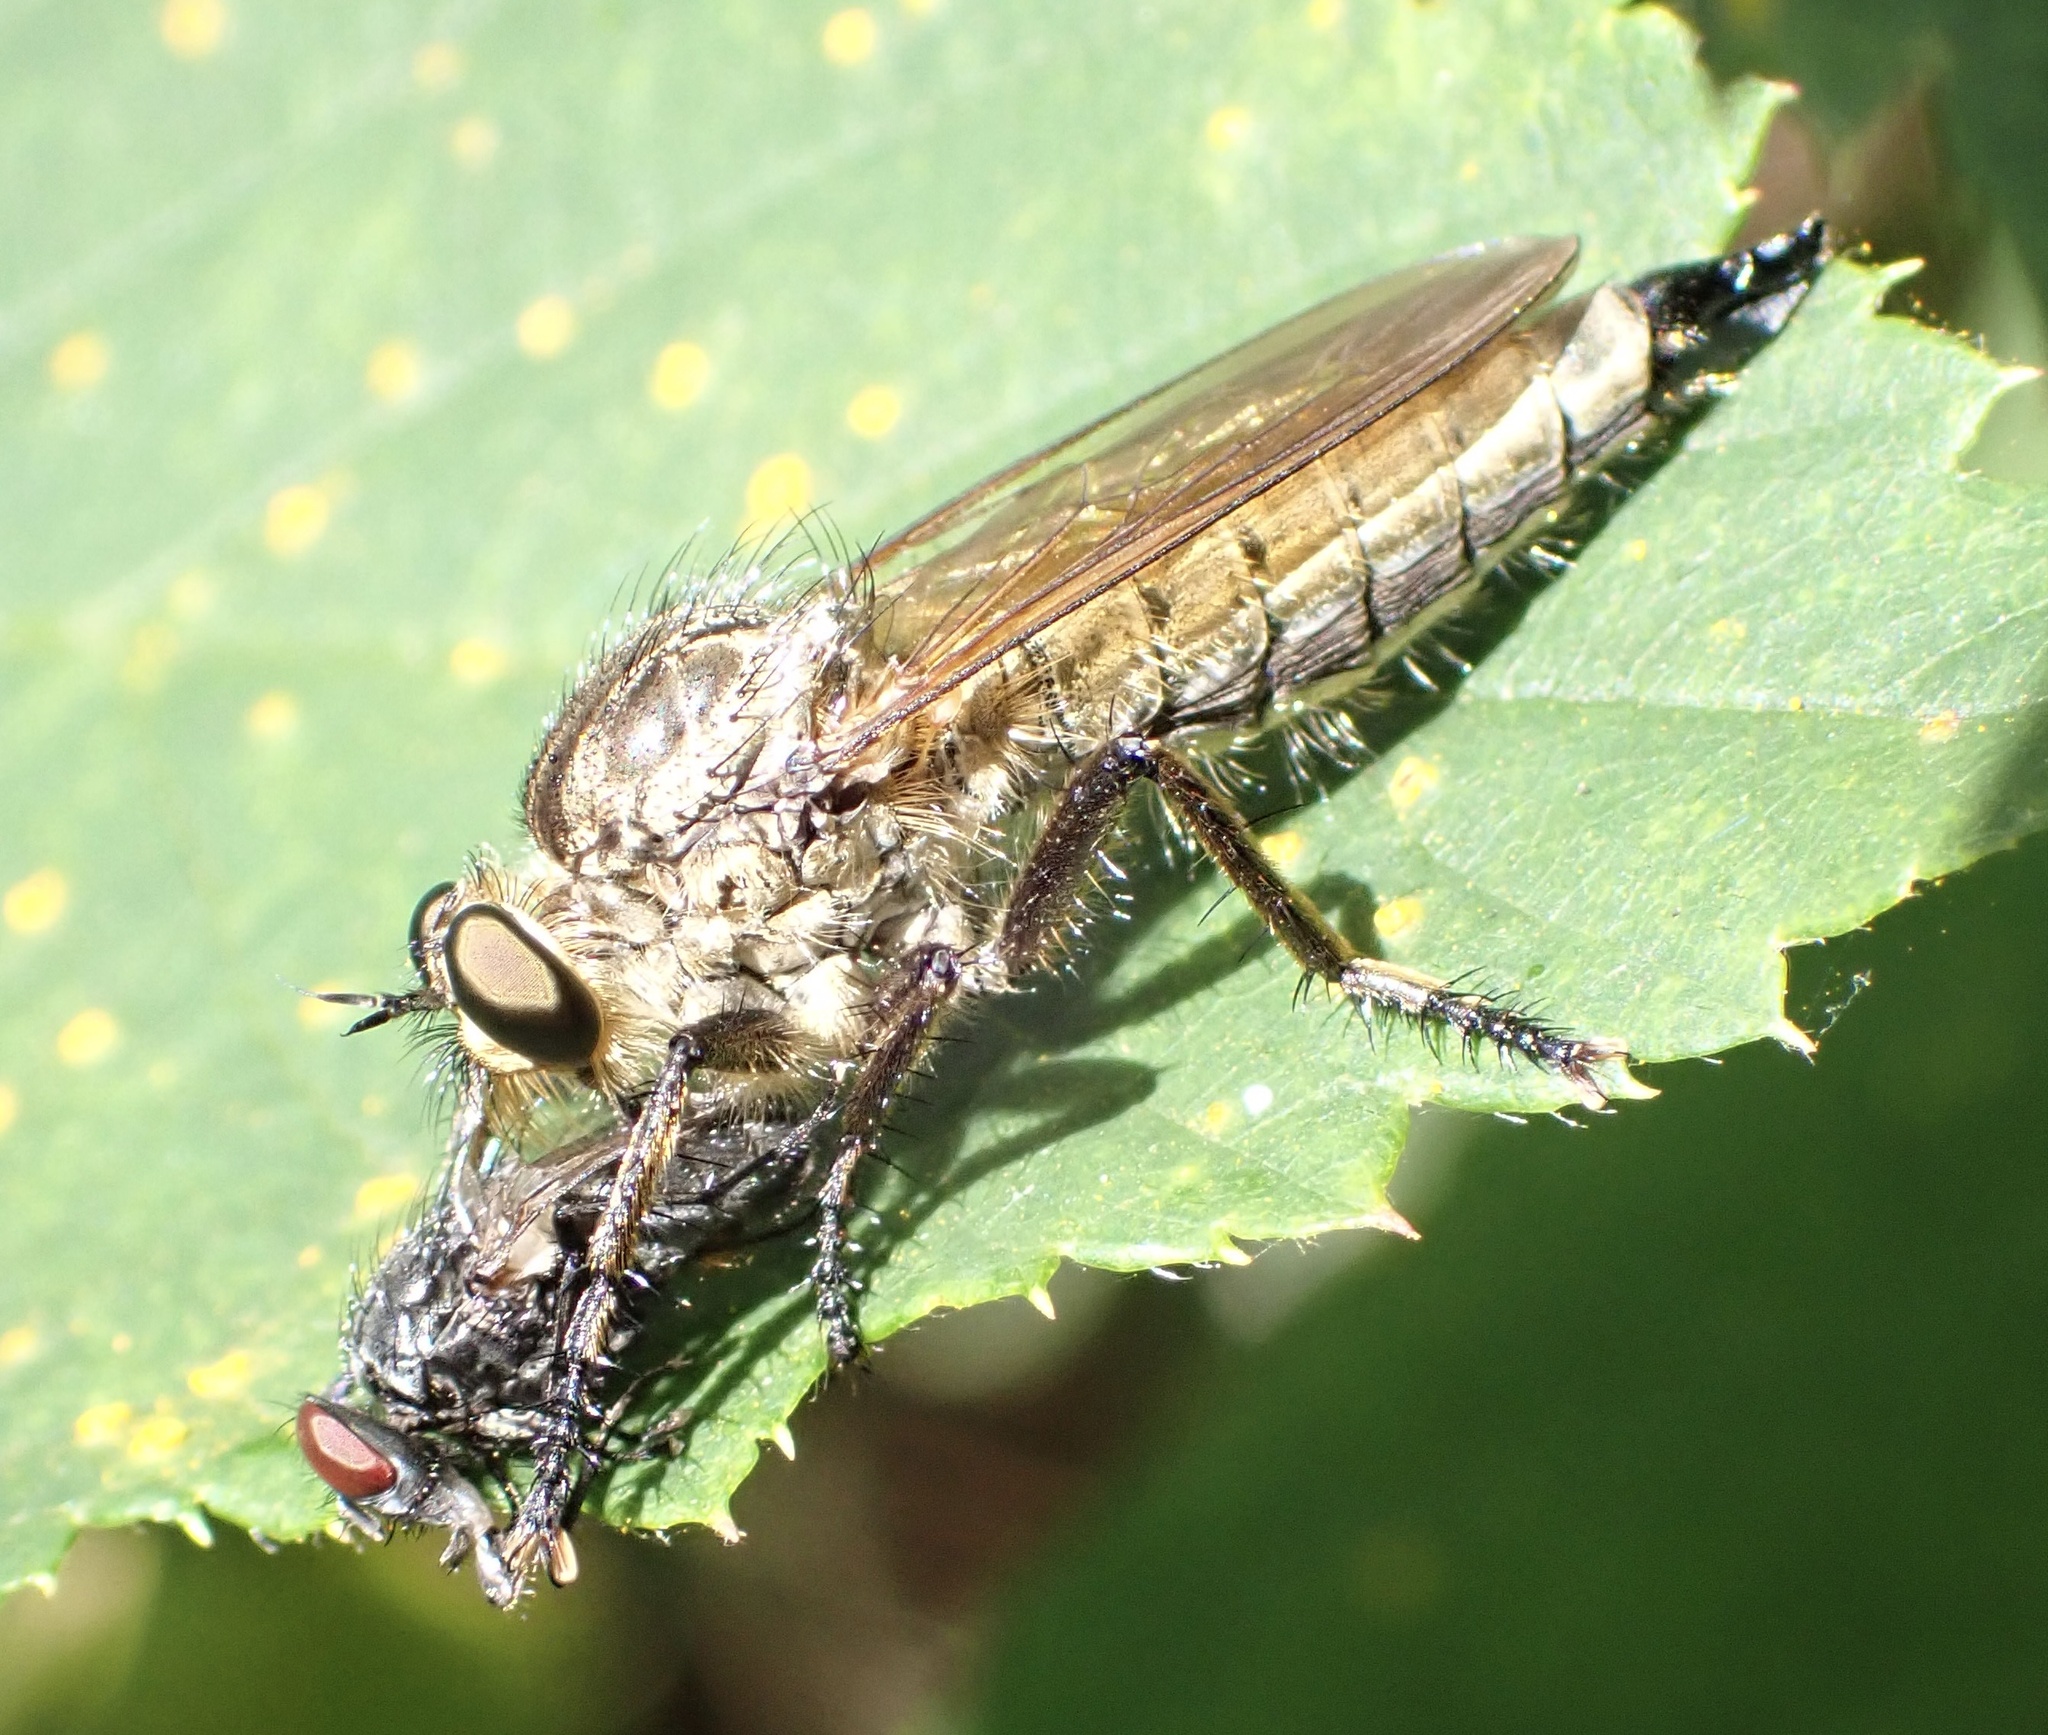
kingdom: Animalia
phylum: Arthropoda
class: Insecta
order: Diptera
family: Asilidae
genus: Eutolmus
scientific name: Eutolmus rufibarbis
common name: Golden-tabbed robberfly
